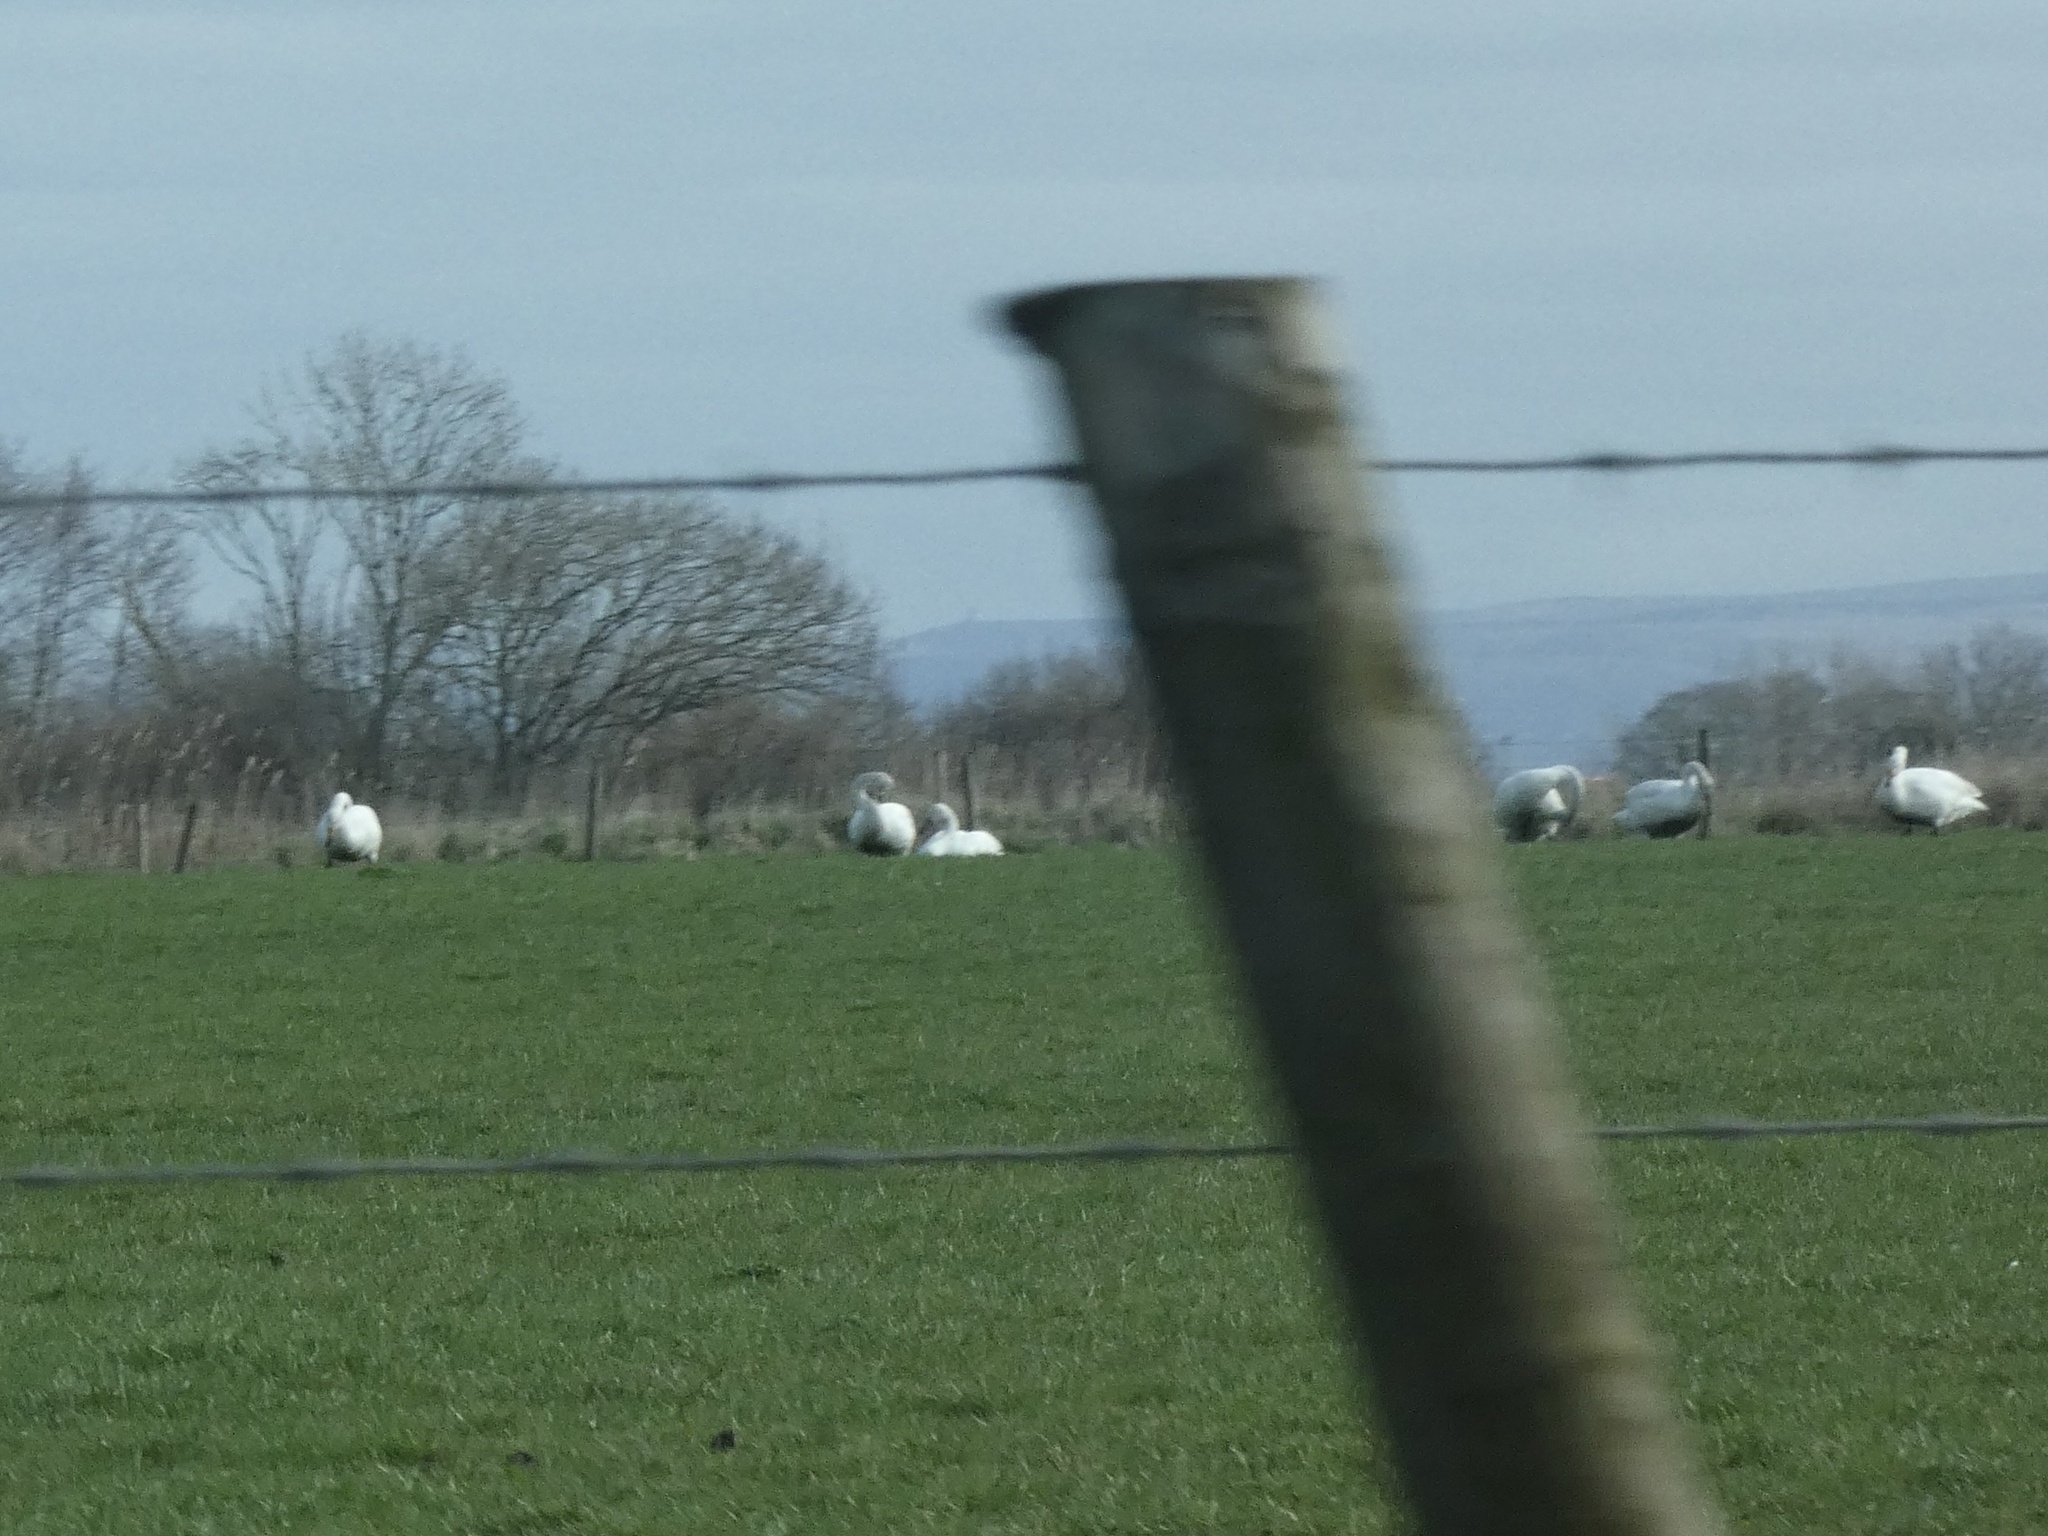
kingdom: Animalia
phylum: Chordata
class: Aves
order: Anseriformes
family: Anatidae
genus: Cygnus
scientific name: Cygnus cygnus
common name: Whooper swan
